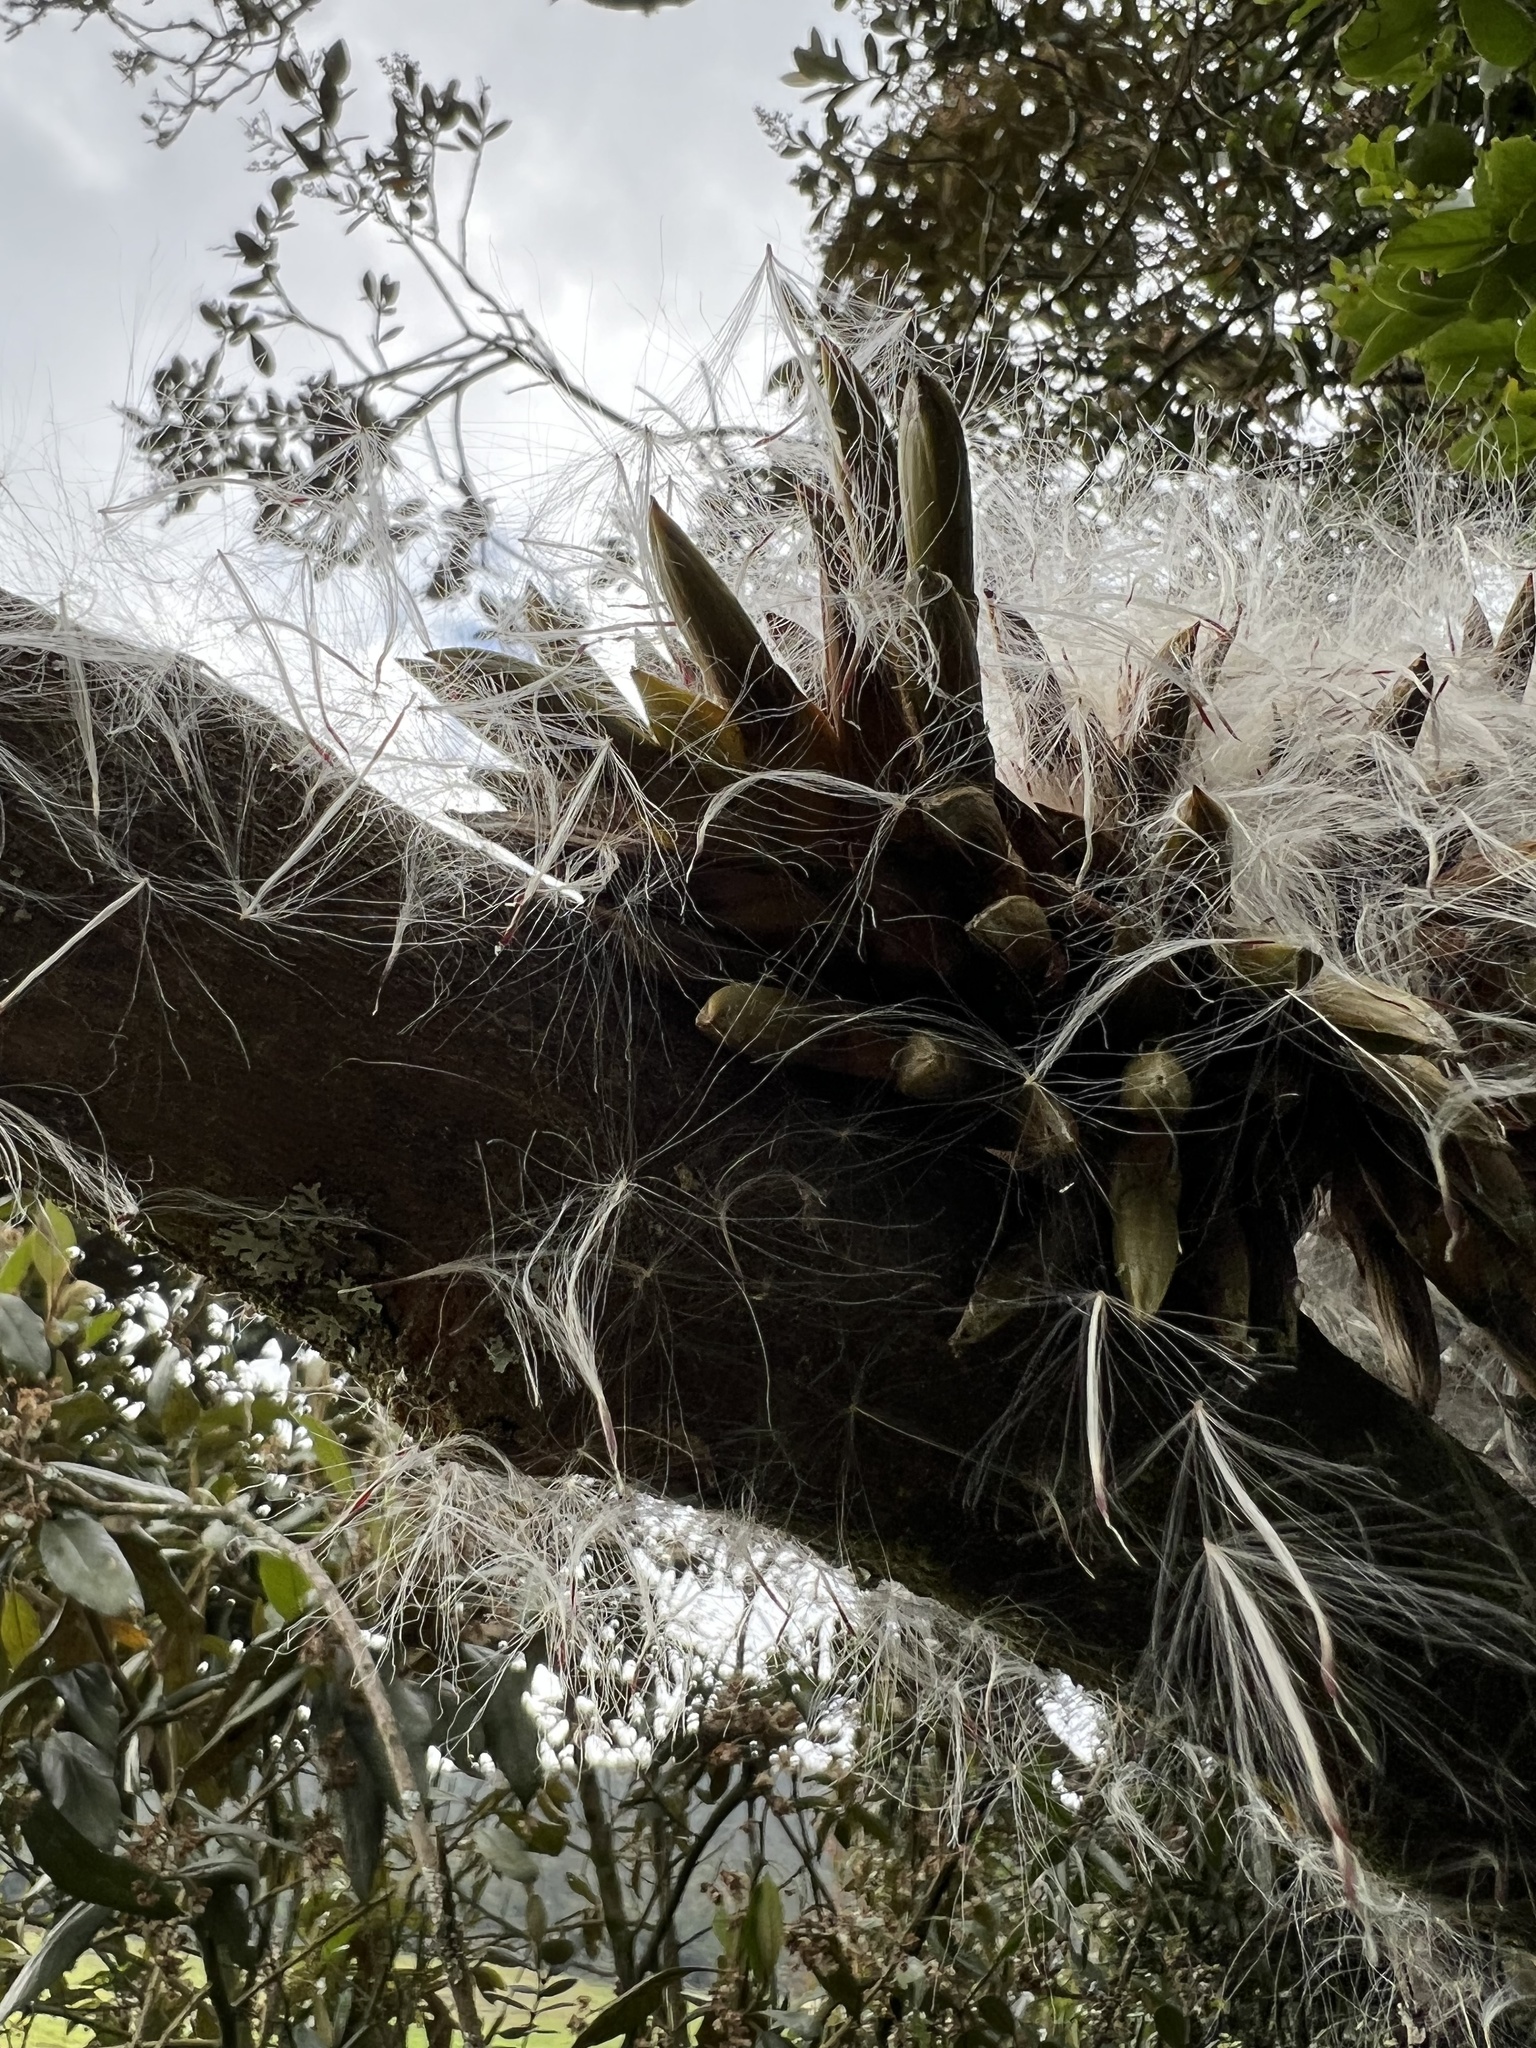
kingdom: Plantae
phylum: Tracheophyta
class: Liliopsida
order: Poales
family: Bromeliaceae
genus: Tillandsia
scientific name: Tillandsia pastensis
